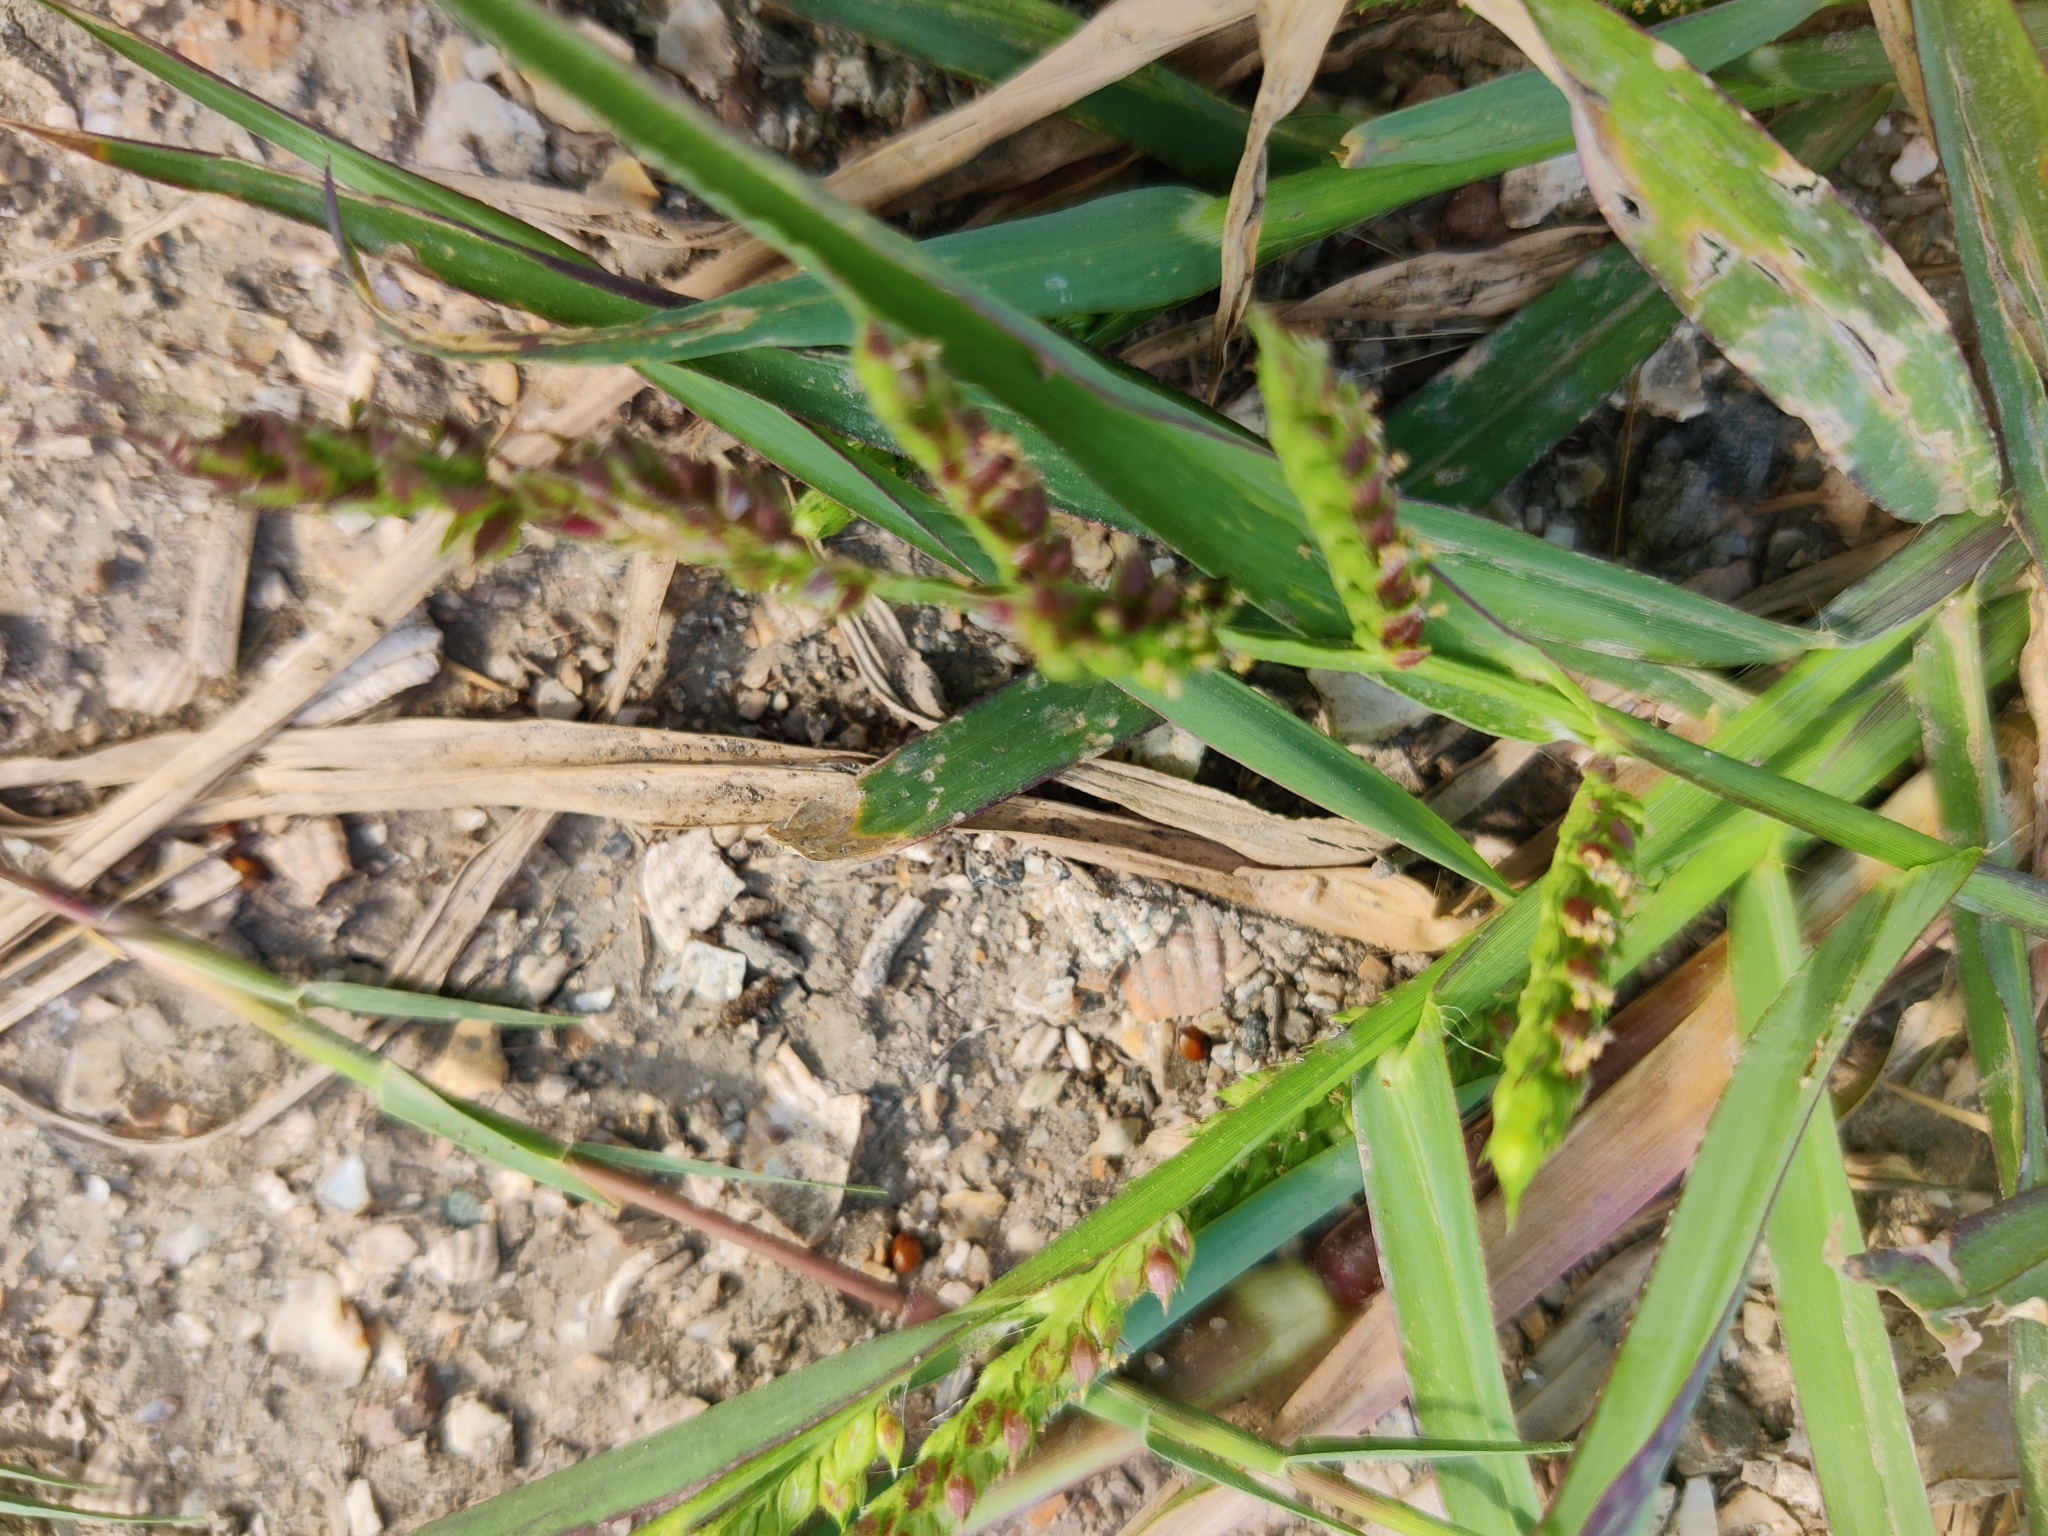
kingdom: Plantae
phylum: Tracheophyta
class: Liliopsida
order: Poales
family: Poaceae
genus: Echinochloa
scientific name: Echinochloa crus-galli
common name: Cockspur
